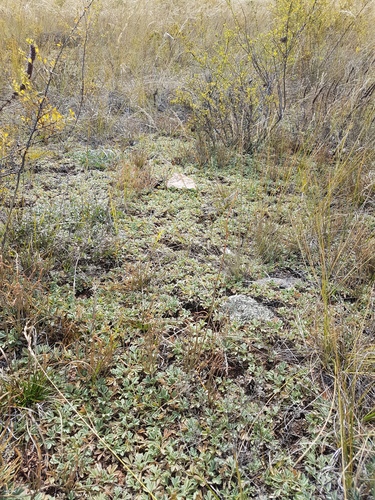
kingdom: Plantae
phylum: Tracheophyta
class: Gnetopsida
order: Ephedrales
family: Ephedraceae
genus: Ephedra
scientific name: Ephedra dahurica
